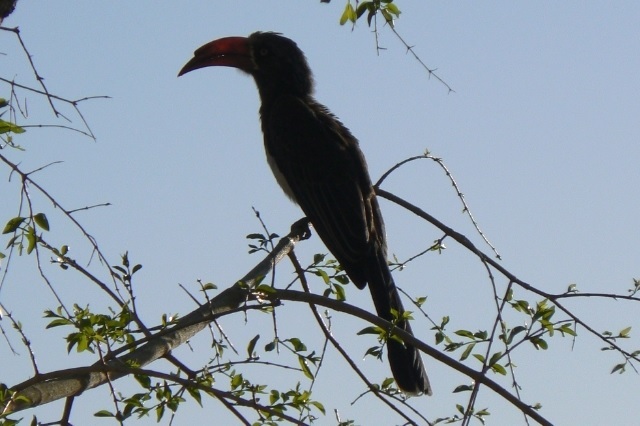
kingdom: Animalia
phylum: Chordata
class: Aves
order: Bucerotiformes
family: Bucerotidae
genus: Lophoceros
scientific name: Lophoceros alboterminatus
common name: Crowned hornbill
